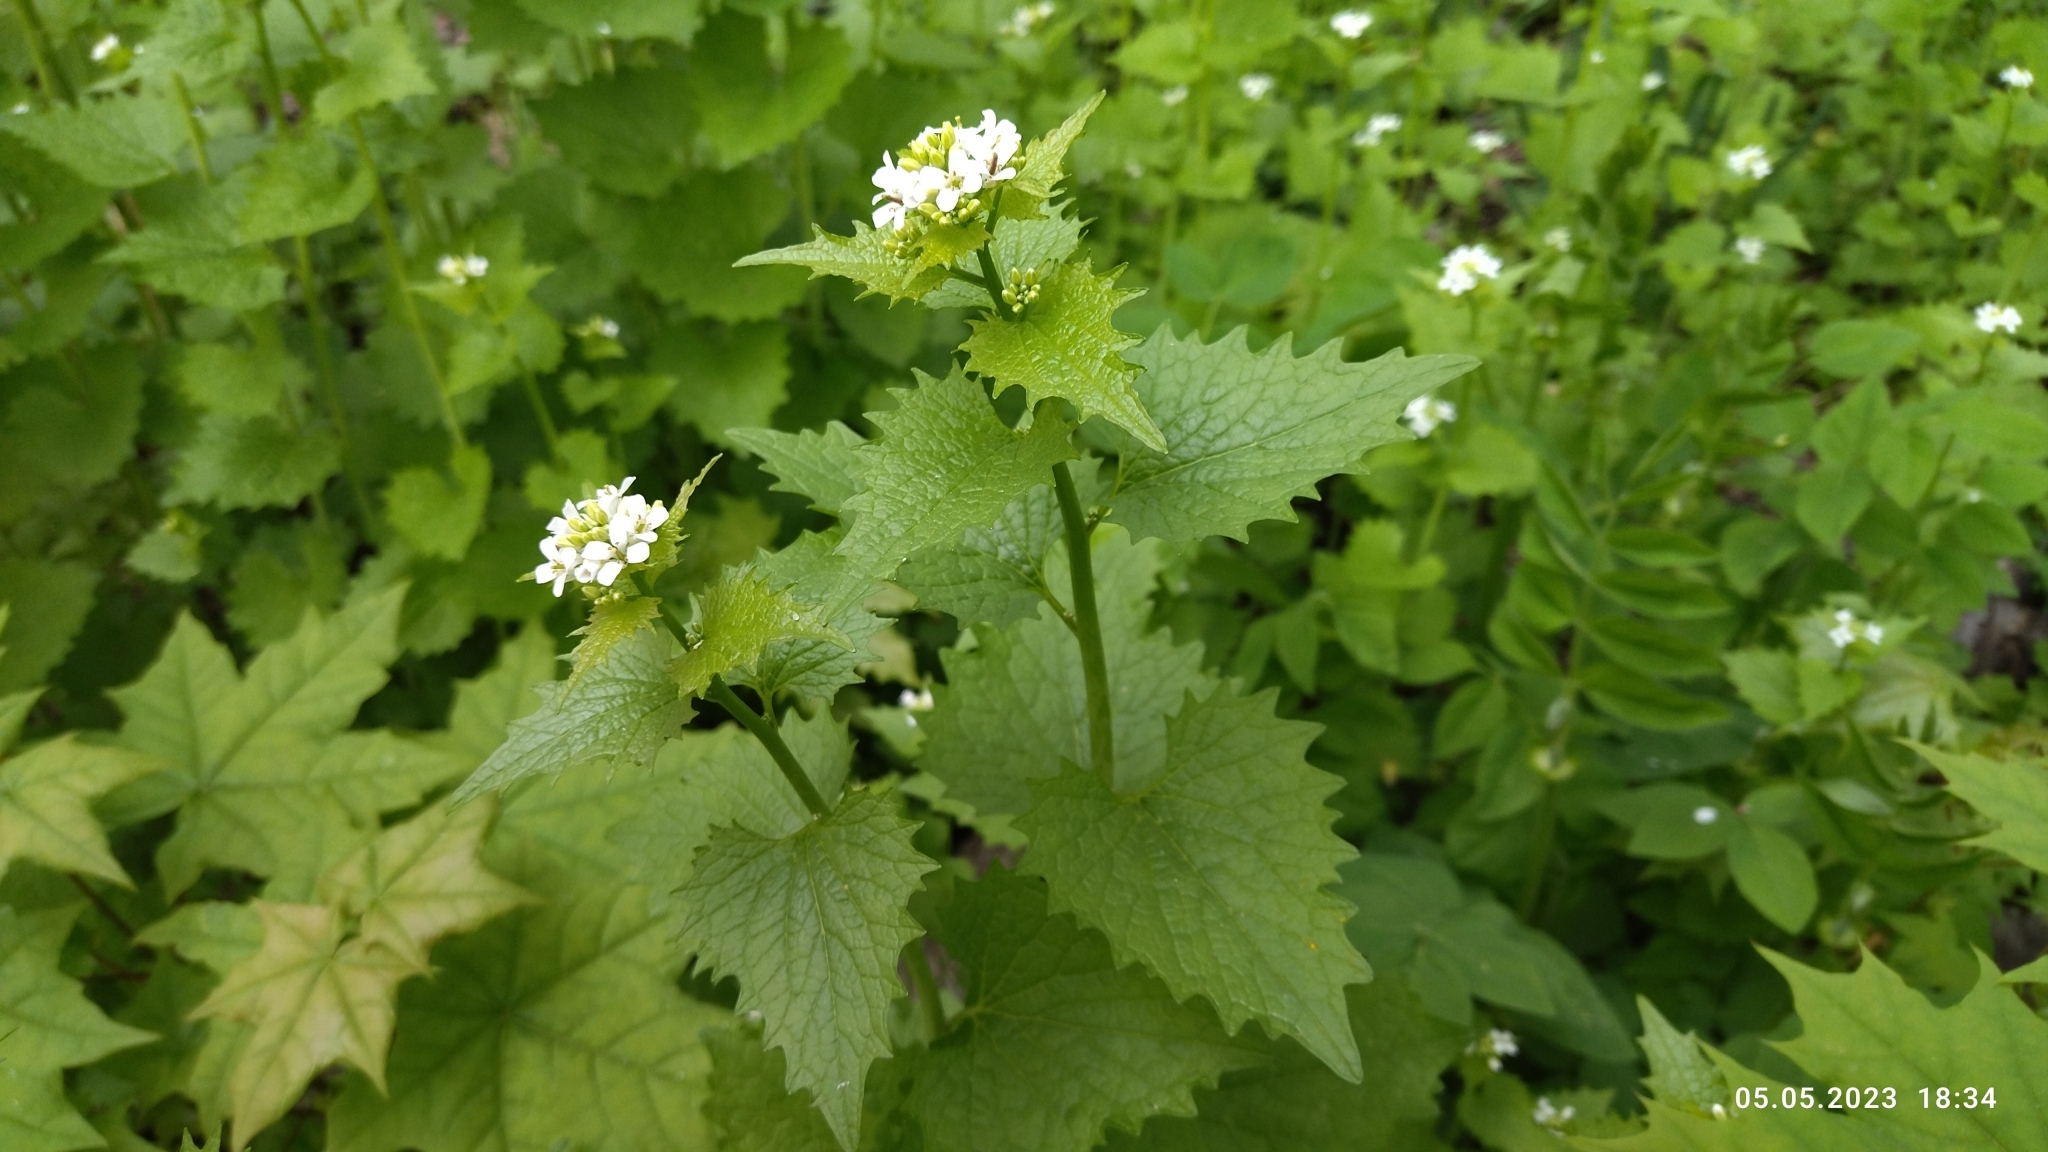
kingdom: Plantae
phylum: Tracheophyta
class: Magnoliopsida
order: Brassicales
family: Brassicaceae
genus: Alliaria
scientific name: Alliaria petiolata
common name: Garlic mustard
